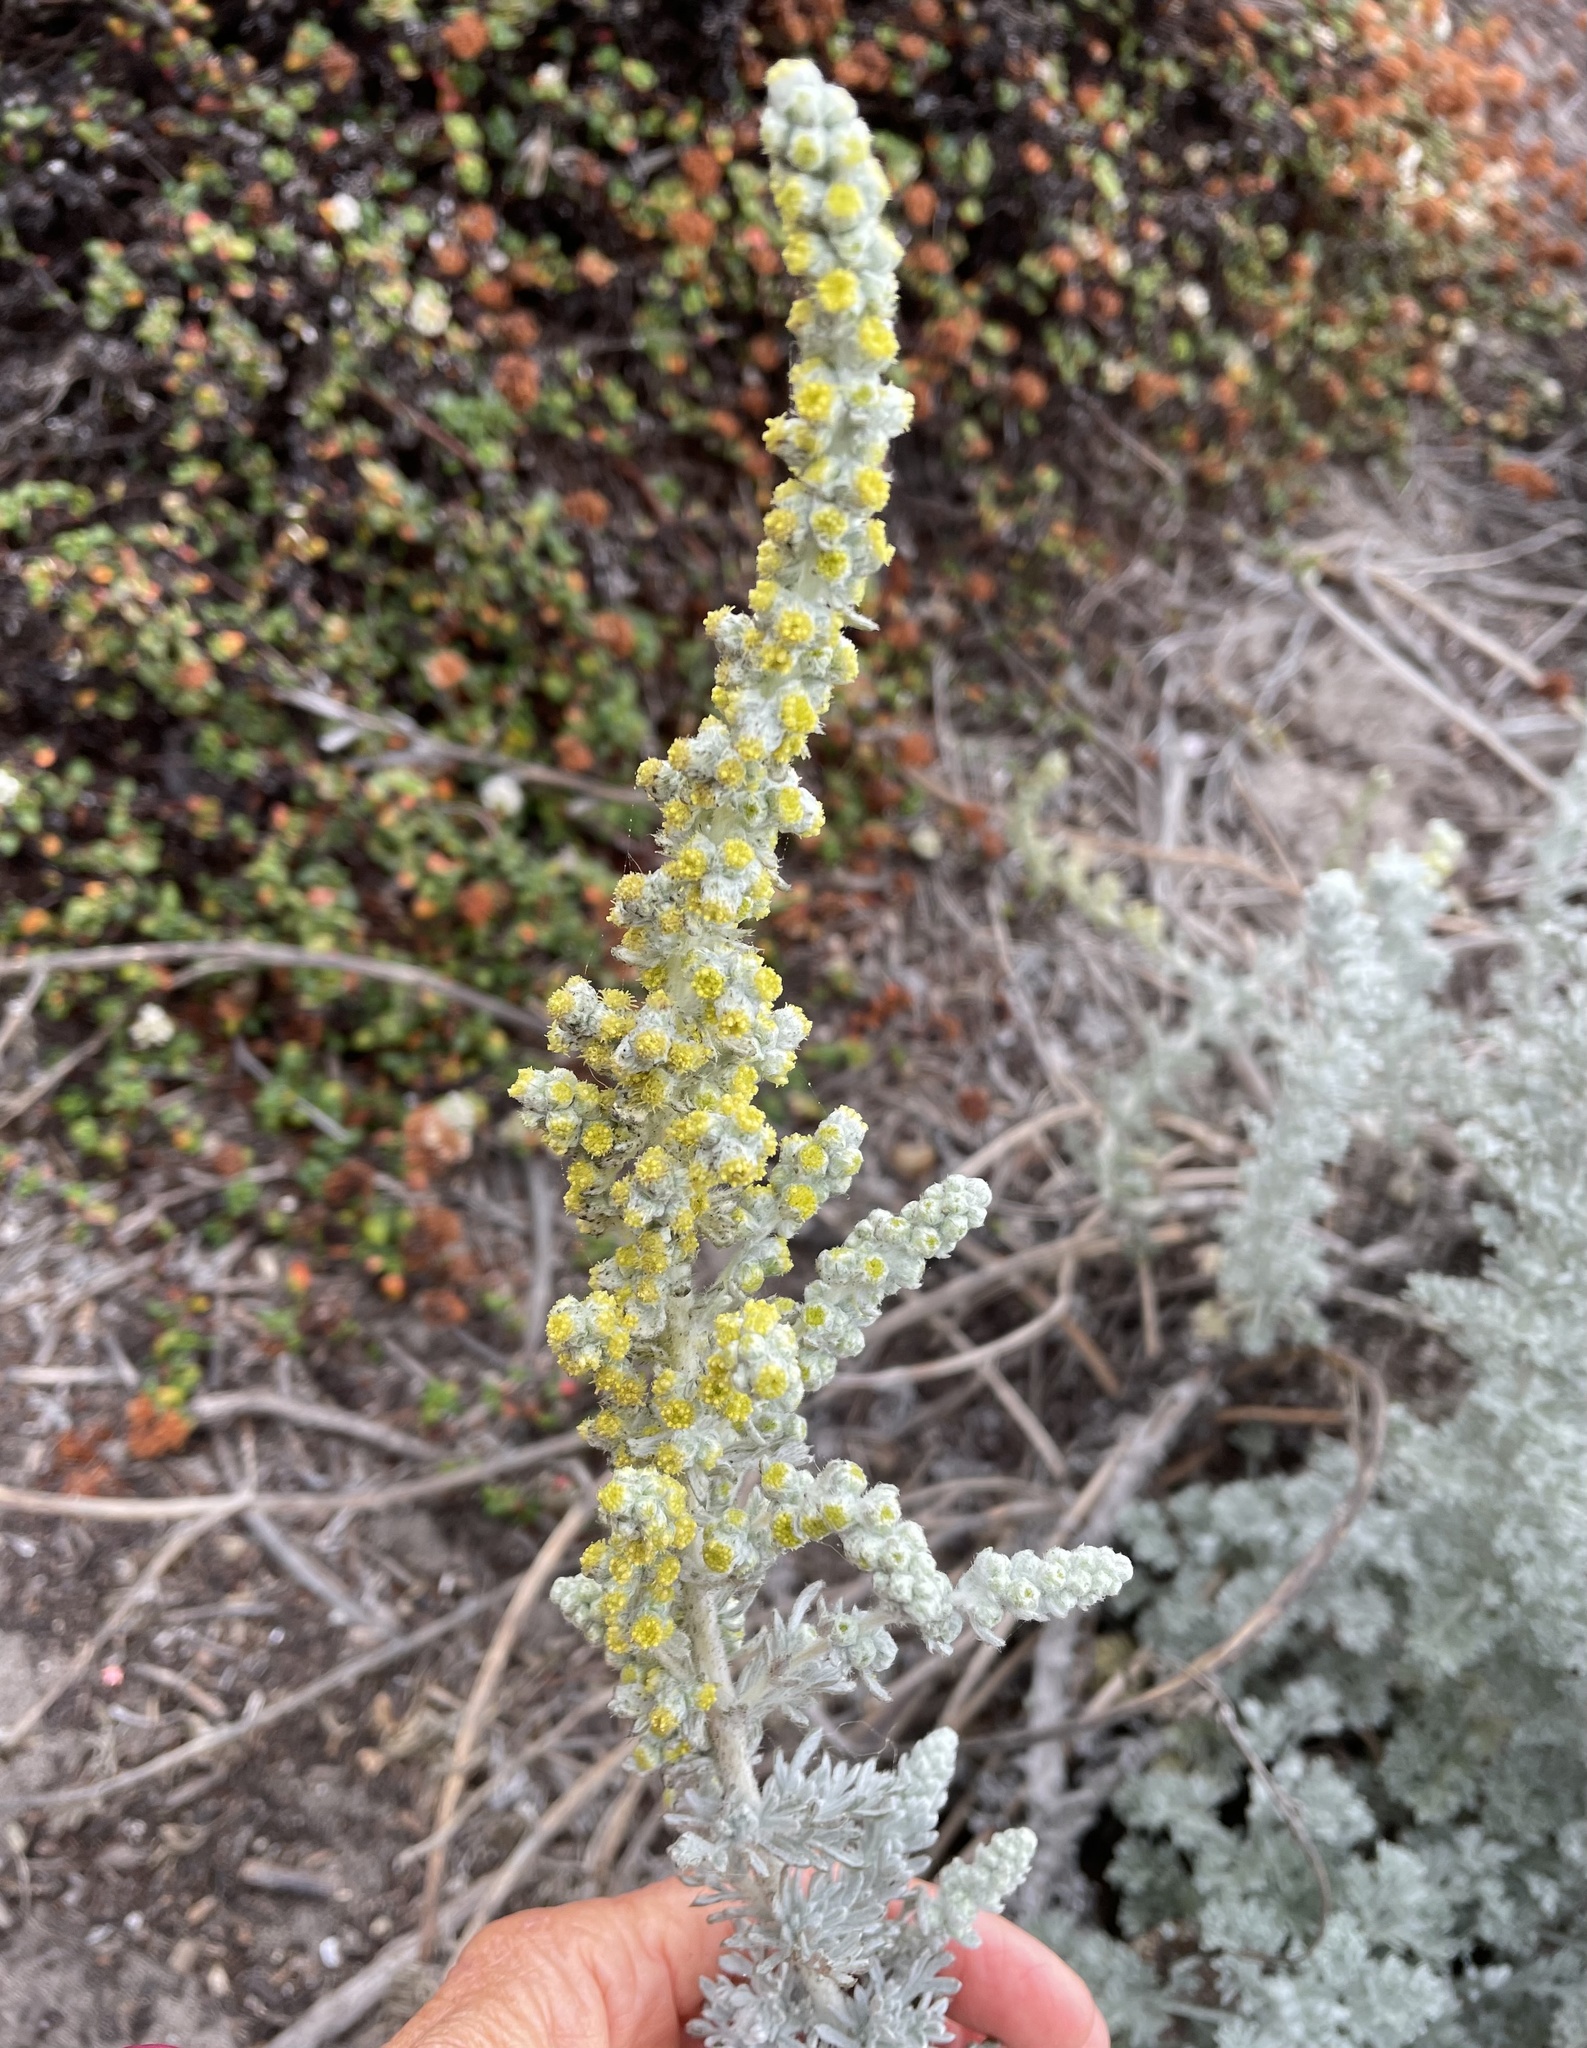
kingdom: Plantae
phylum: Tracheophyta
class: Magnoliopsida
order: Asterales
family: Asteraceae
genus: Artemisia
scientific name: Artemisia pycnocephala
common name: Coastal sagewort
